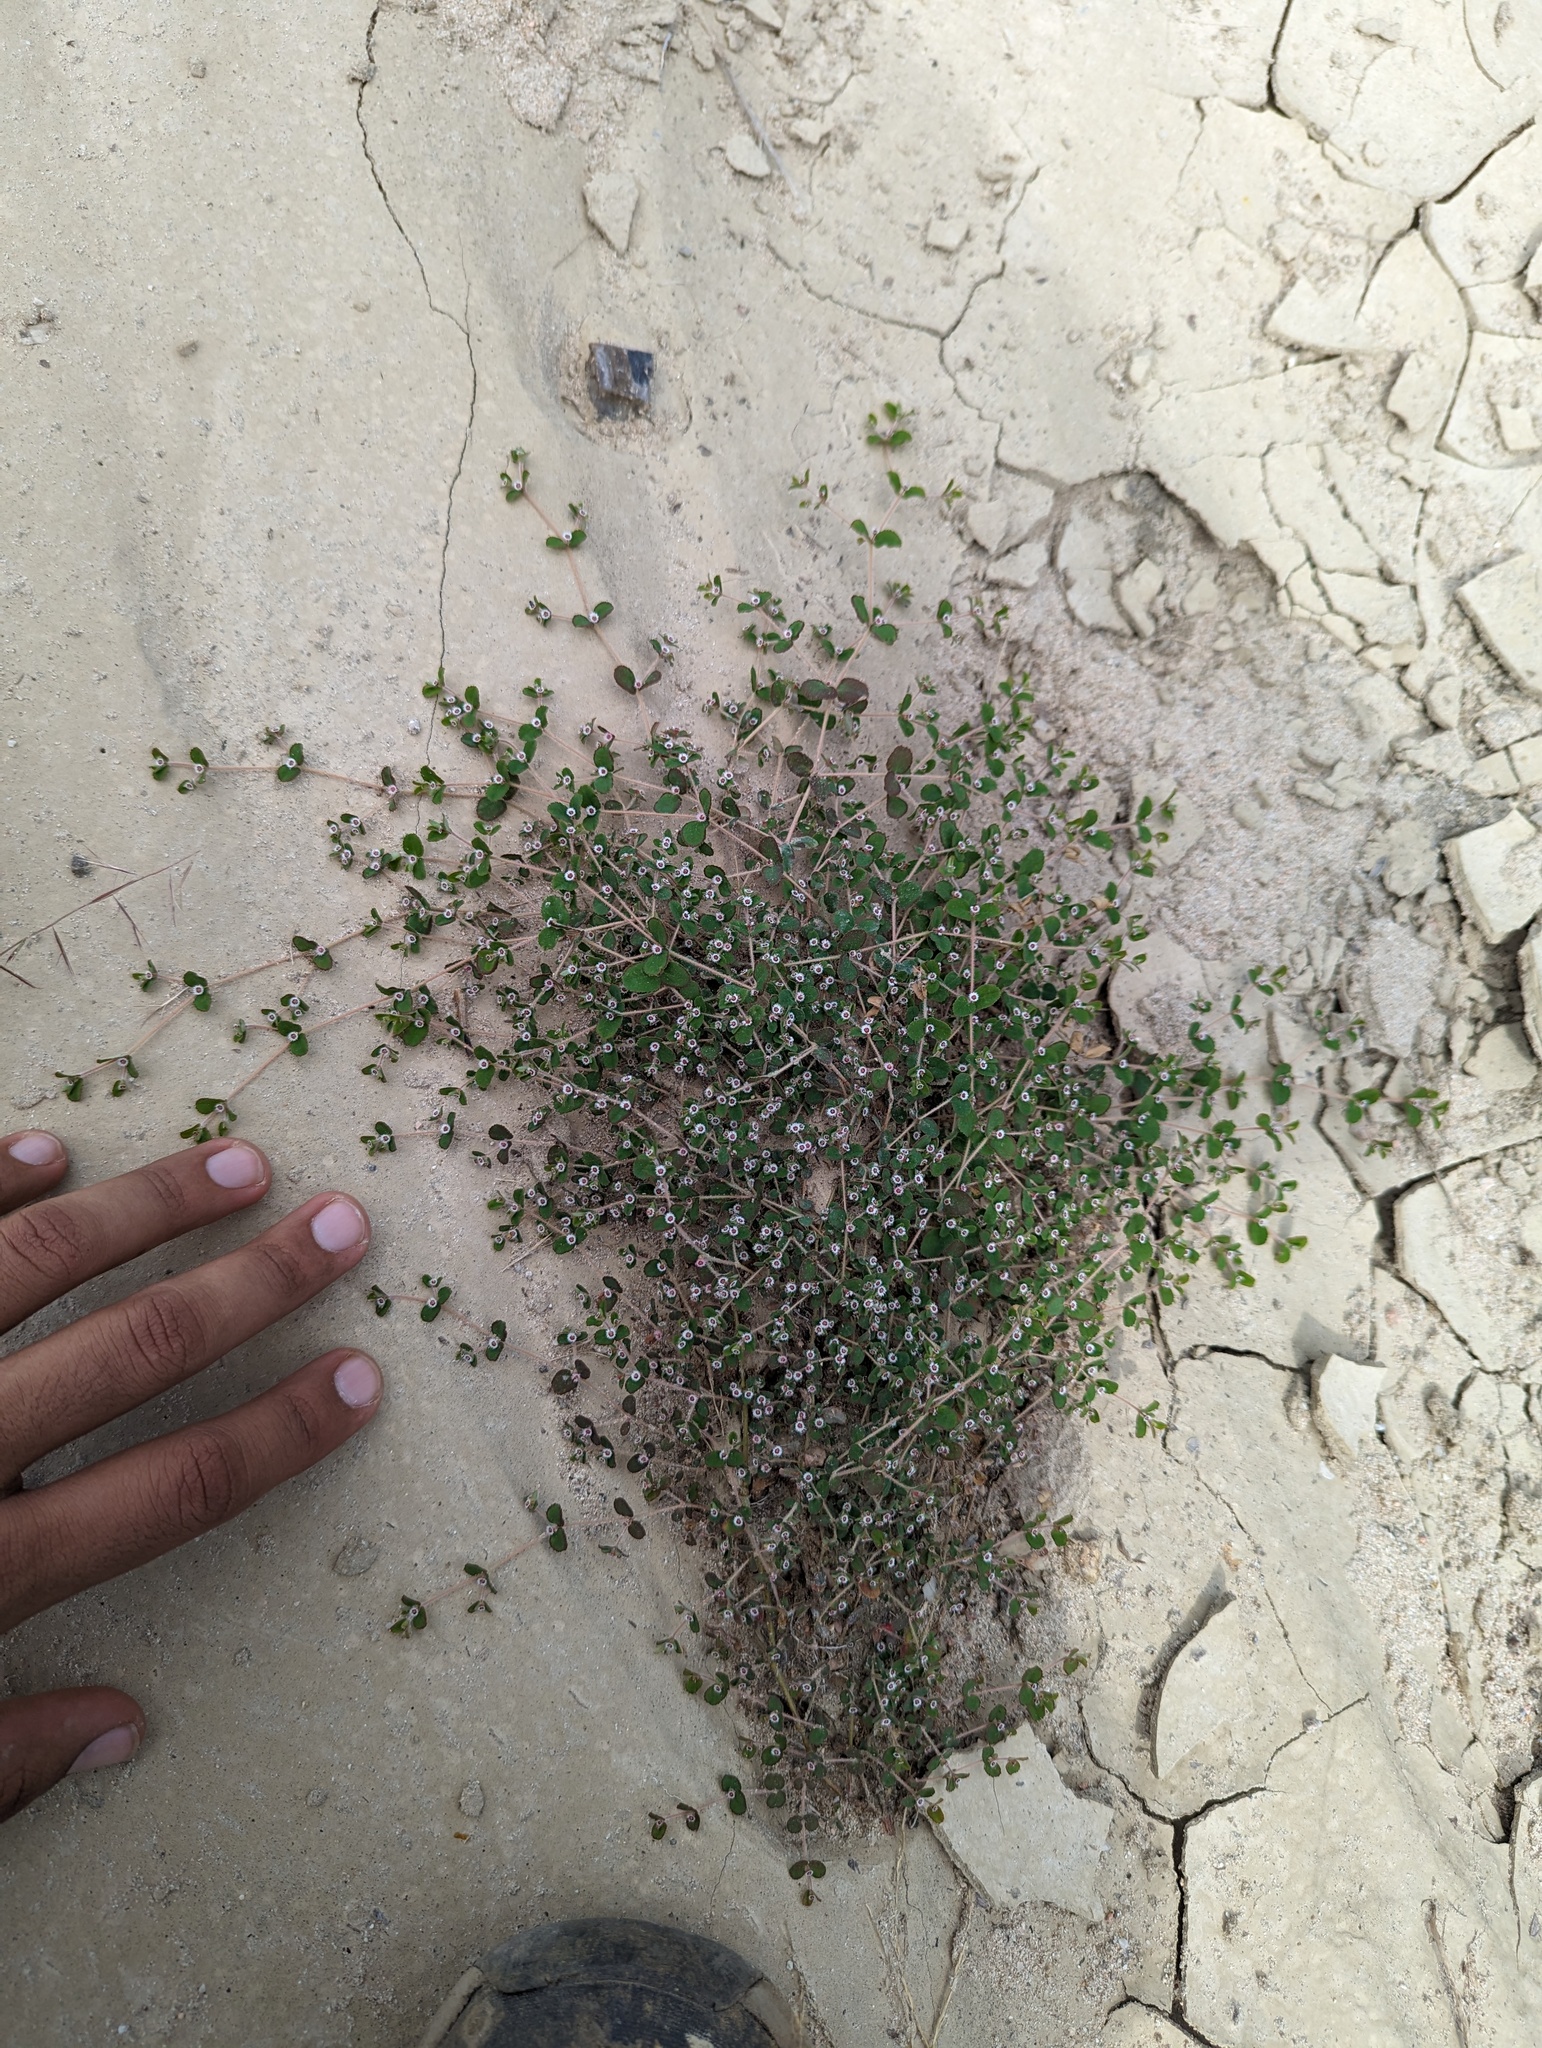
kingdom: Plantae
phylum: Tracheophyta
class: Magnoliopsida
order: Malpighiales
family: Euphorbiaceae
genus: Euphorbia
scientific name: Euphorbia dentosa
